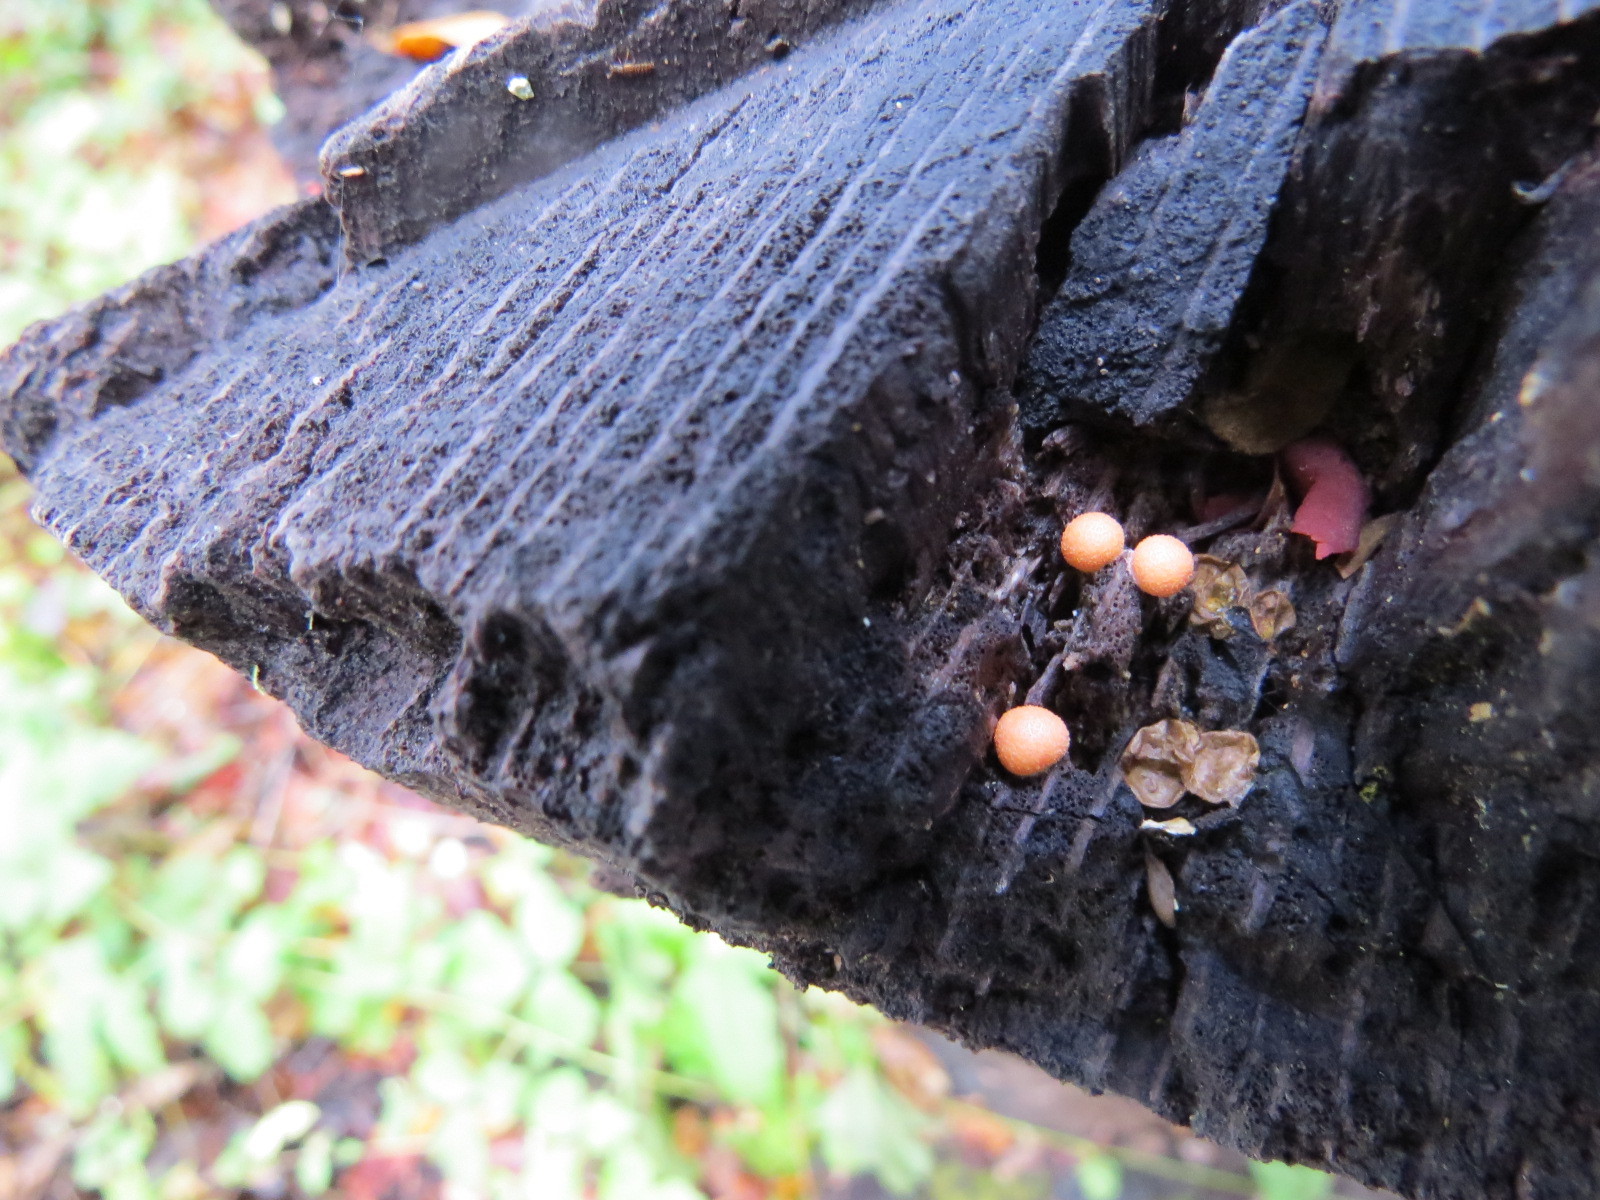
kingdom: Protozoa
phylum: Mycetozoa
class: Myxomycetes
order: Cribrariales
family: Tubiferaceae
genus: Lycogala
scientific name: Lycogala epidendrum
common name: Wolf's milk
